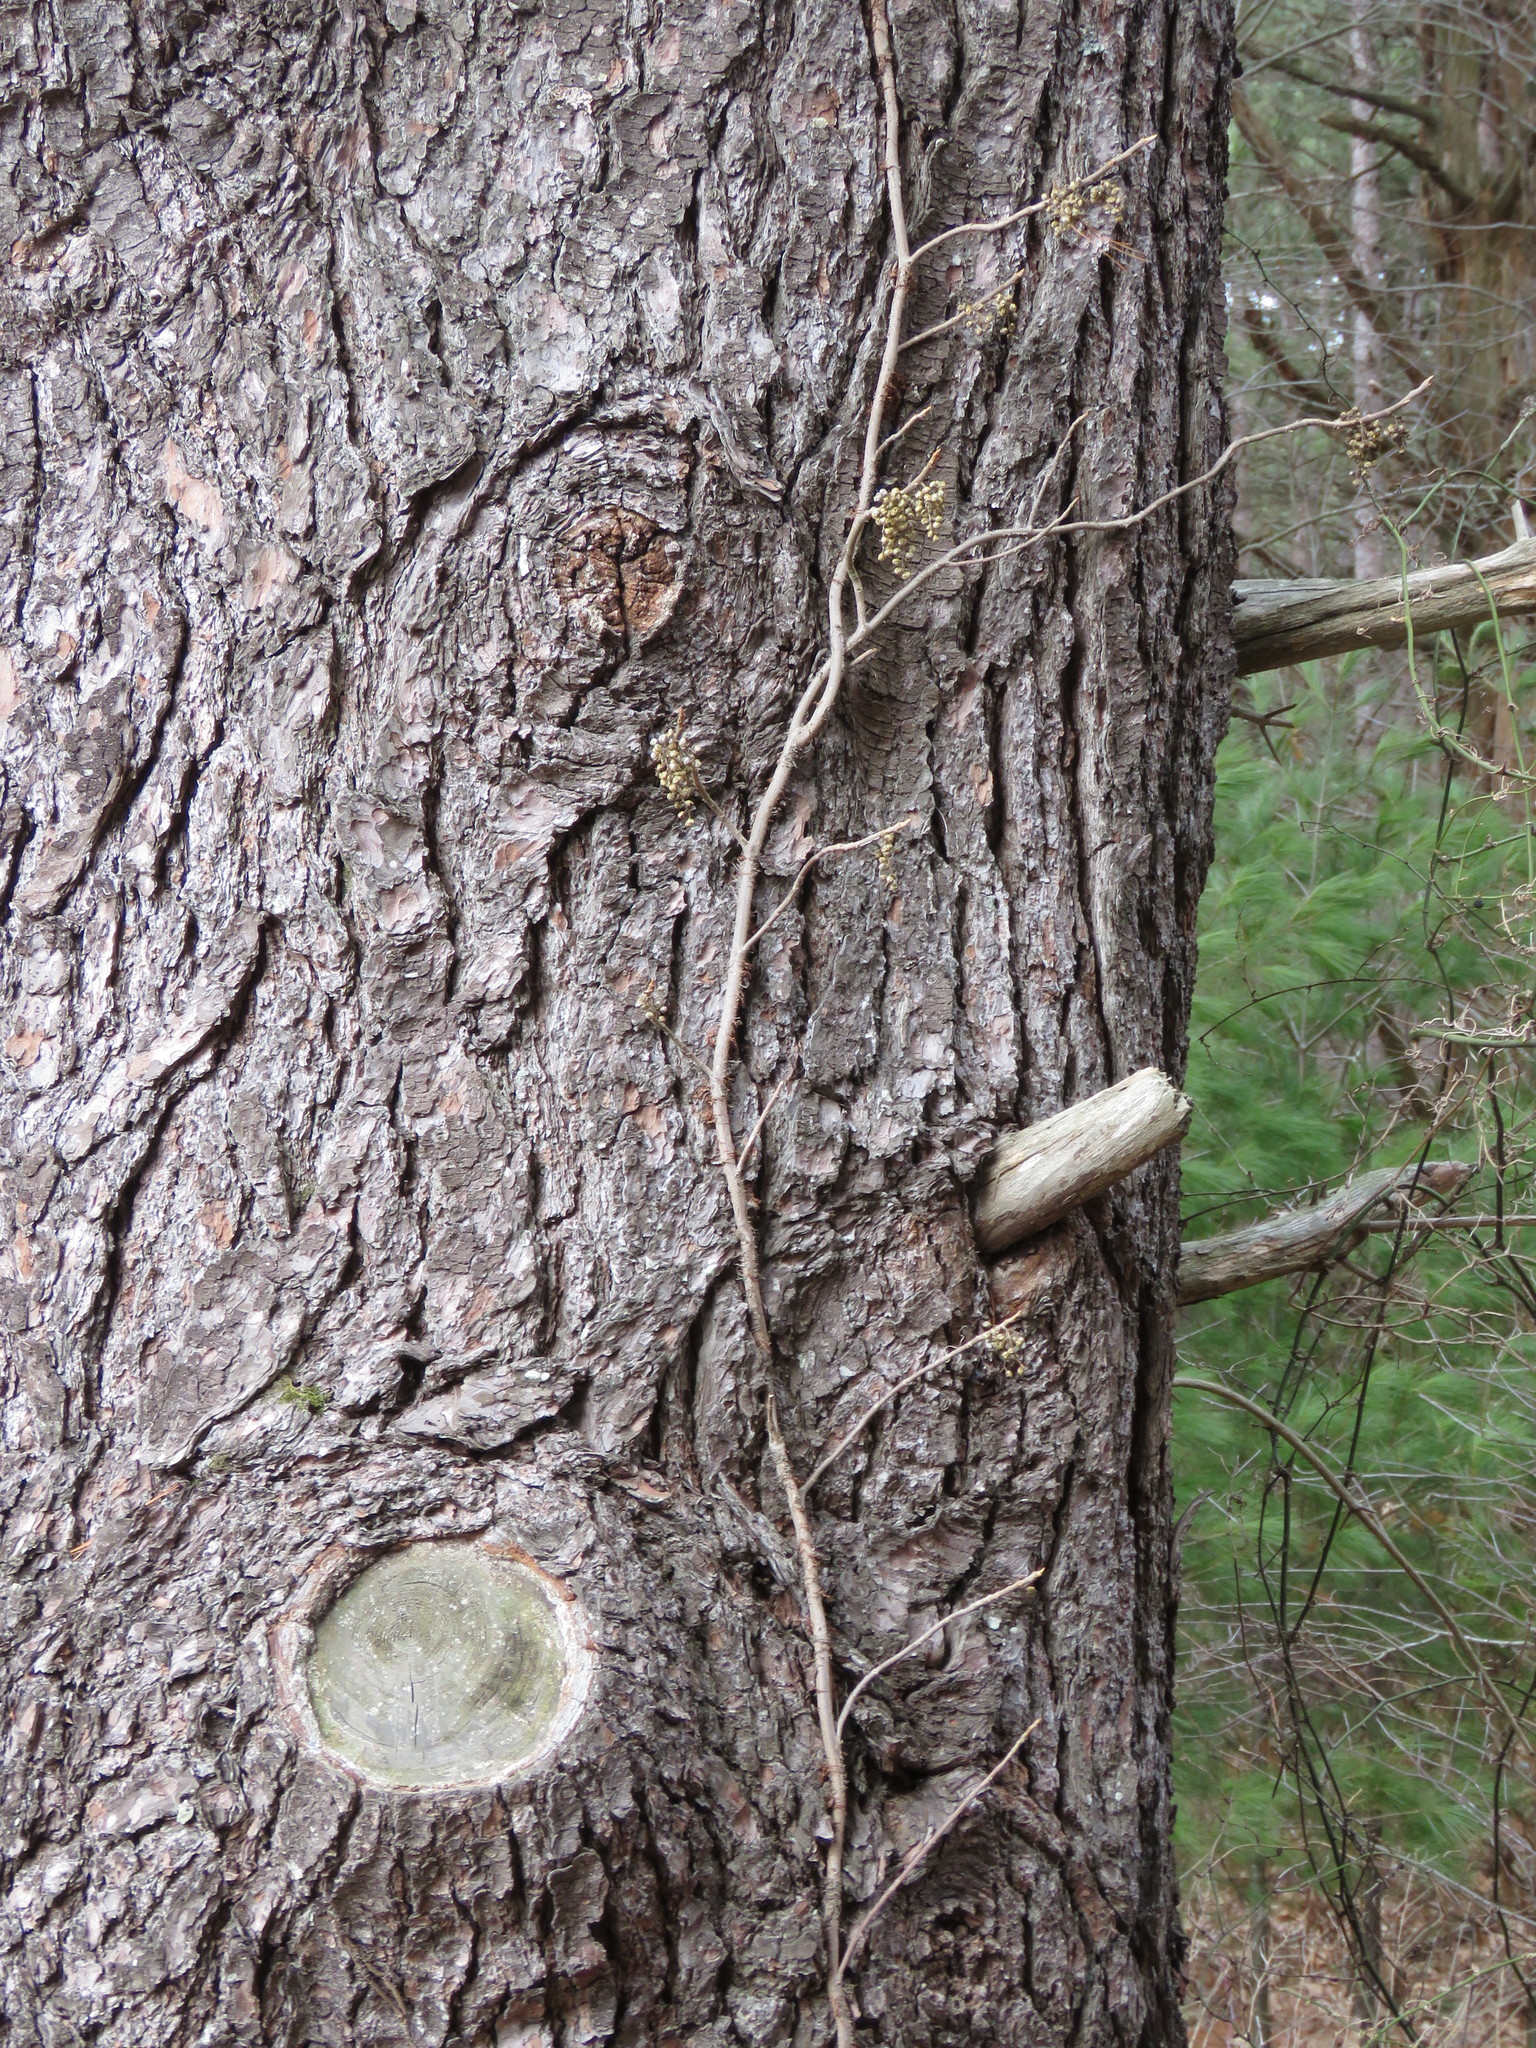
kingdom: Plantae
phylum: Tracheophyta
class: Magnoliopsida
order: Sapindales
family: Anacardiaceae
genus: Toxicodendron
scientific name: Toxicodendron radicans
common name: Poison ivy
